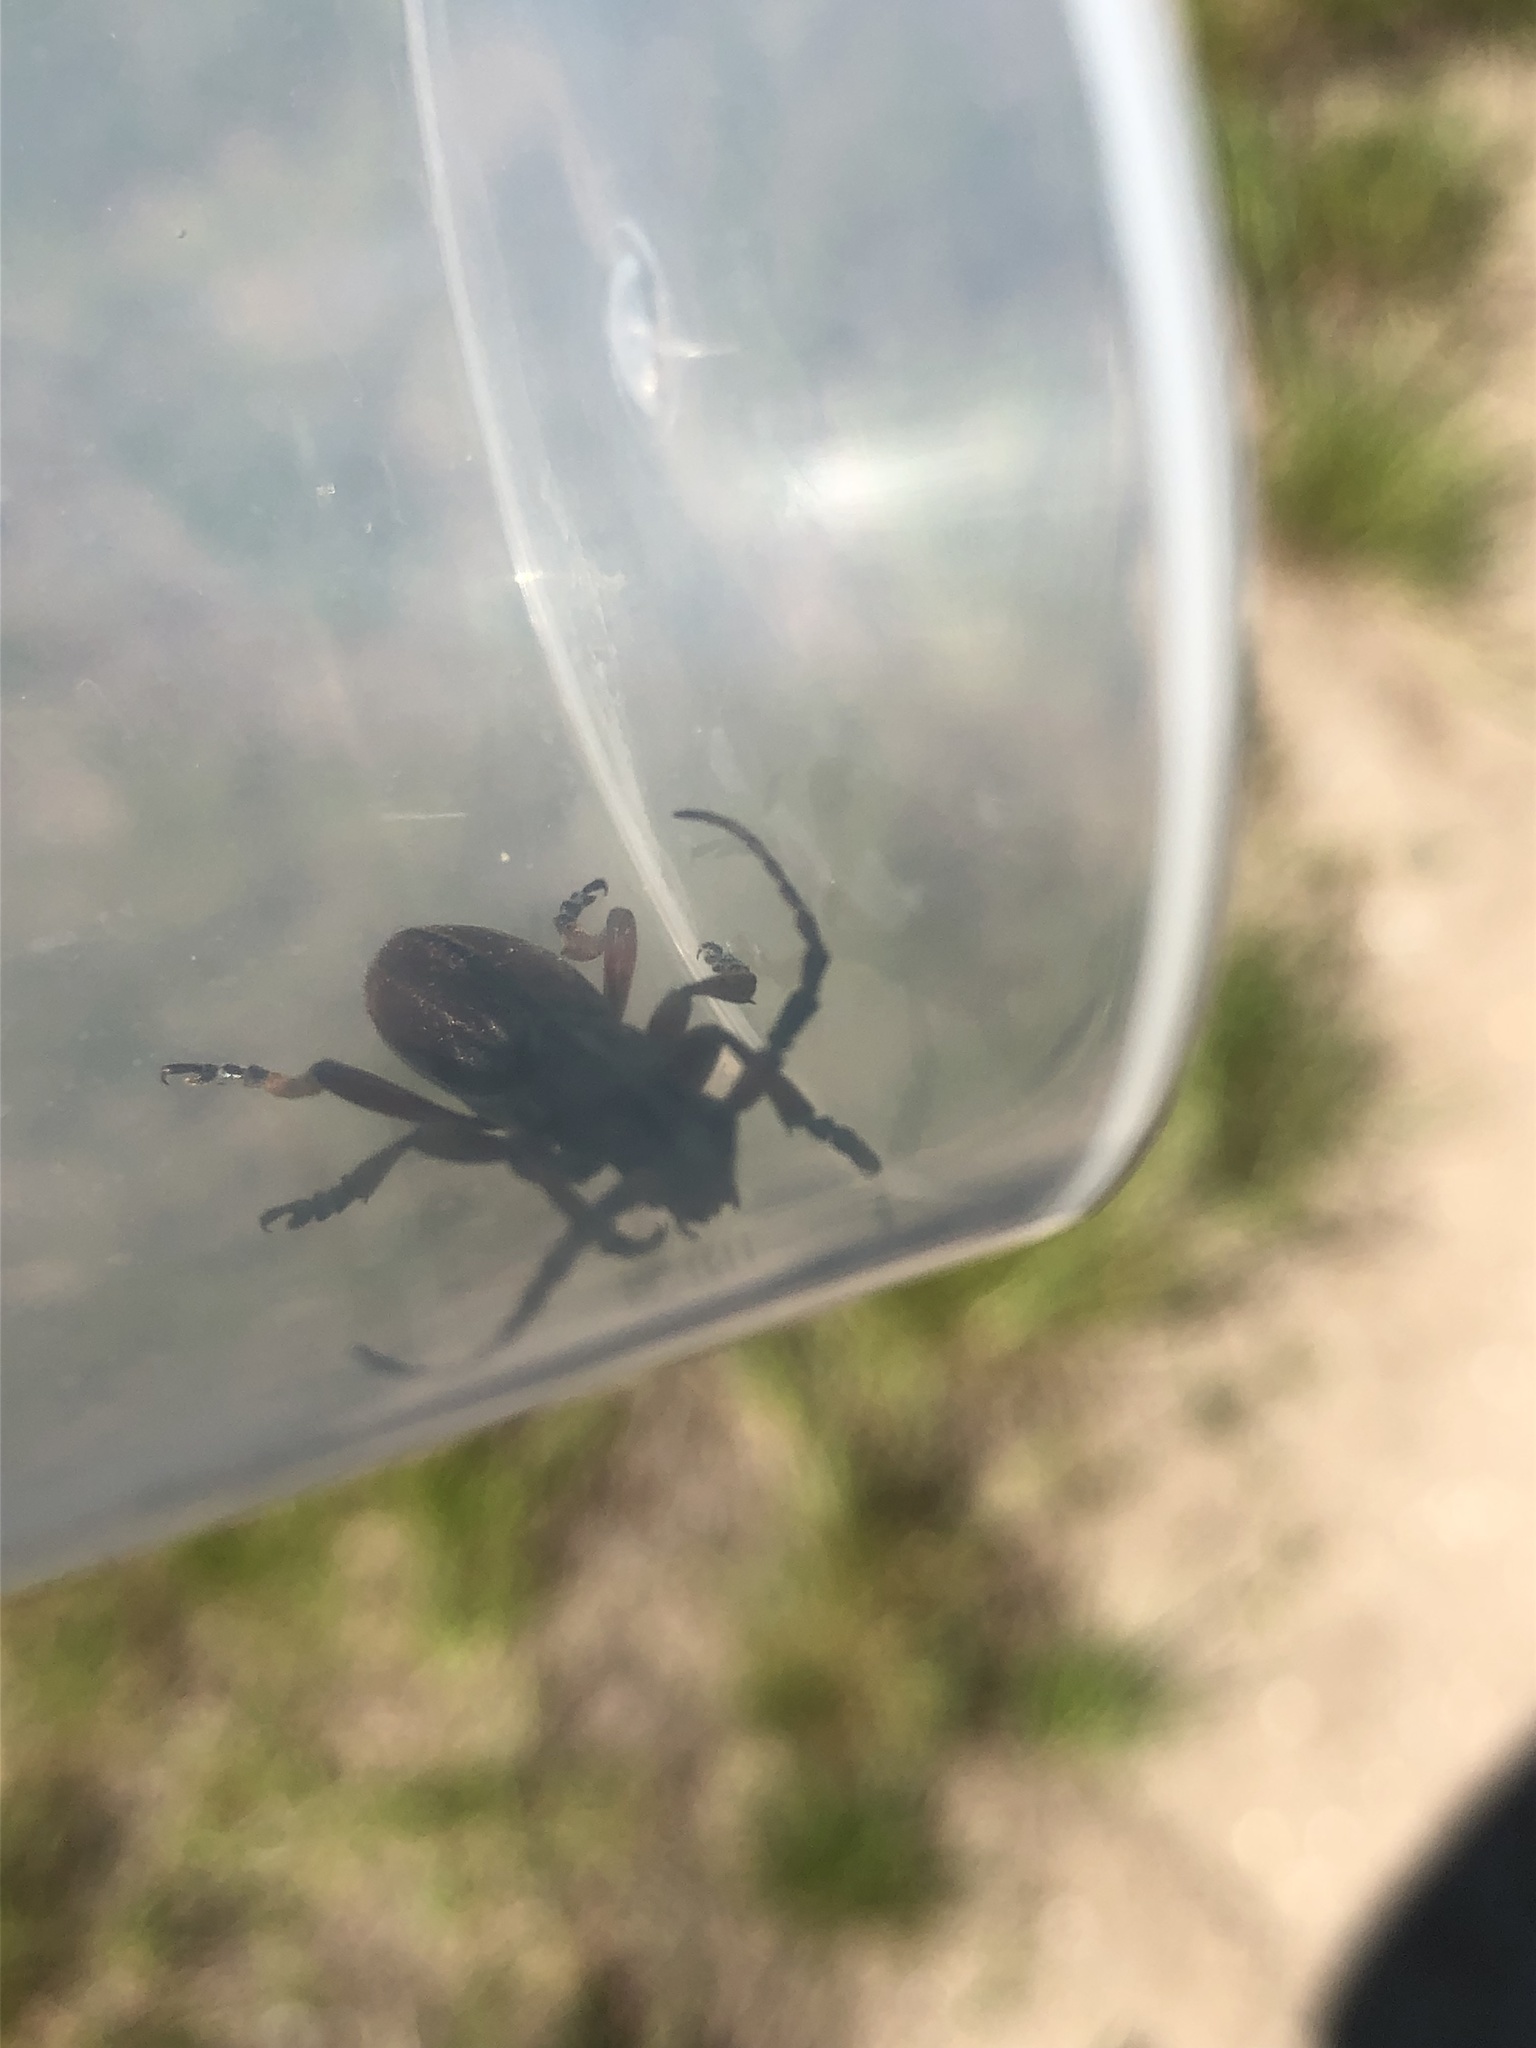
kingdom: Animalia
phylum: Arthropoda
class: Insecta
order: Coleoptera
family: Cerambycidae
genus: Dorcadion
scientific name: Dorcadion fulvum
